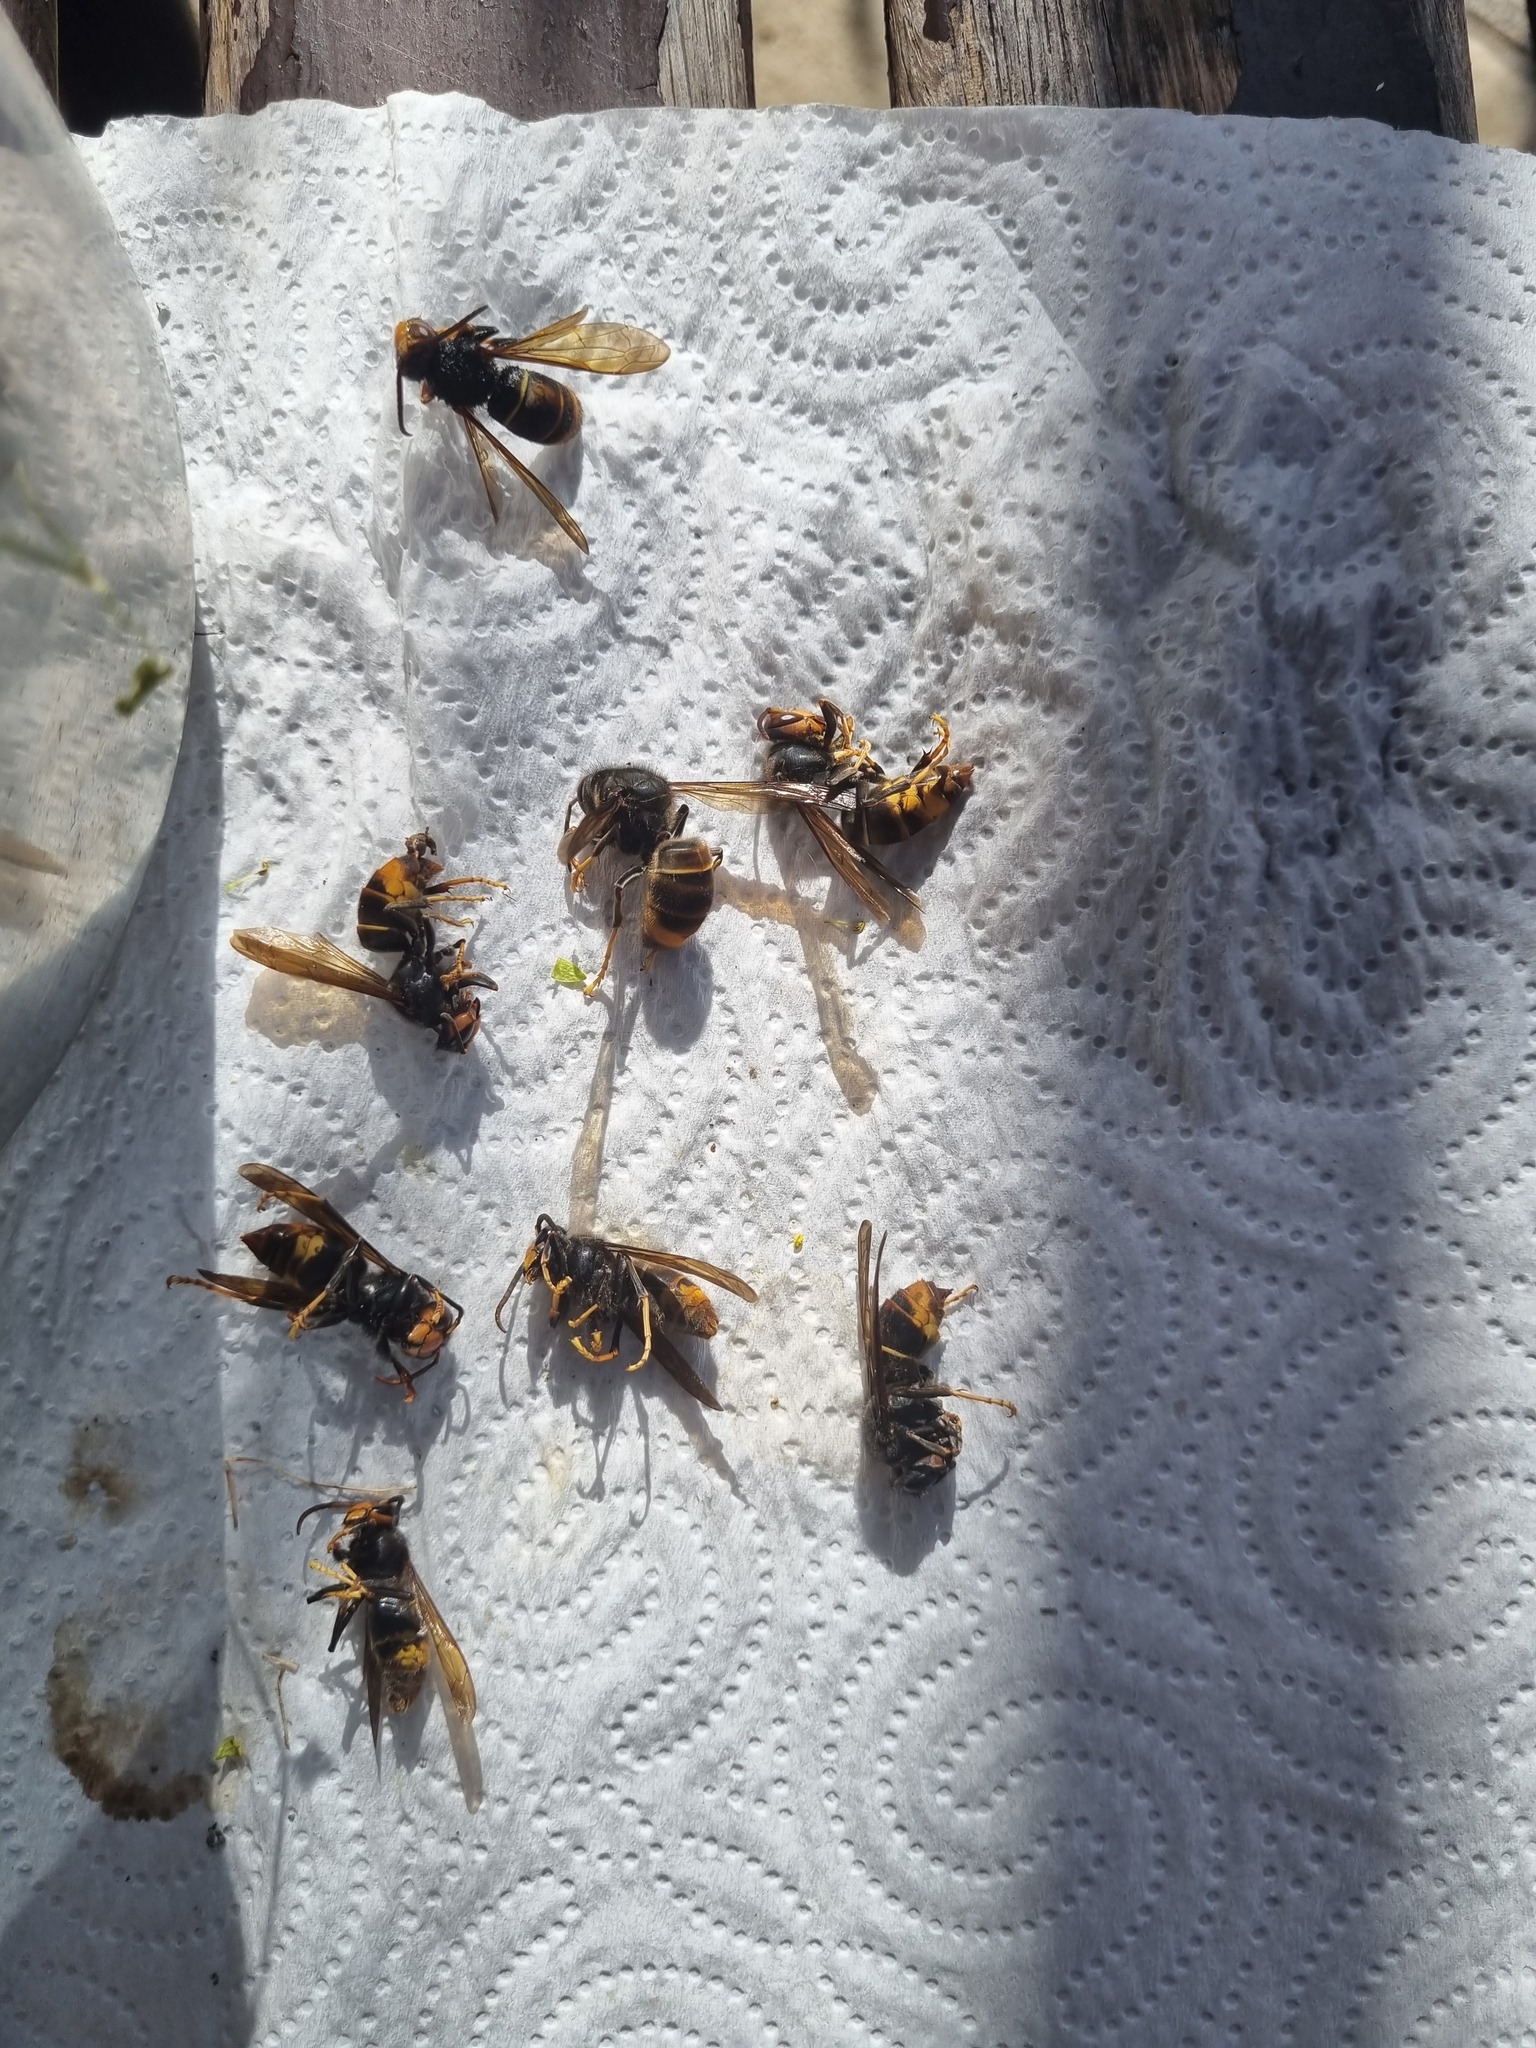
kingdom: Animalia
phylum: Arthropoda
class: Insecta
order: Hymenoptera
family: Vespidae
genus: Vespa
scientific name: Vespa velutina
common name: Asian hornet
